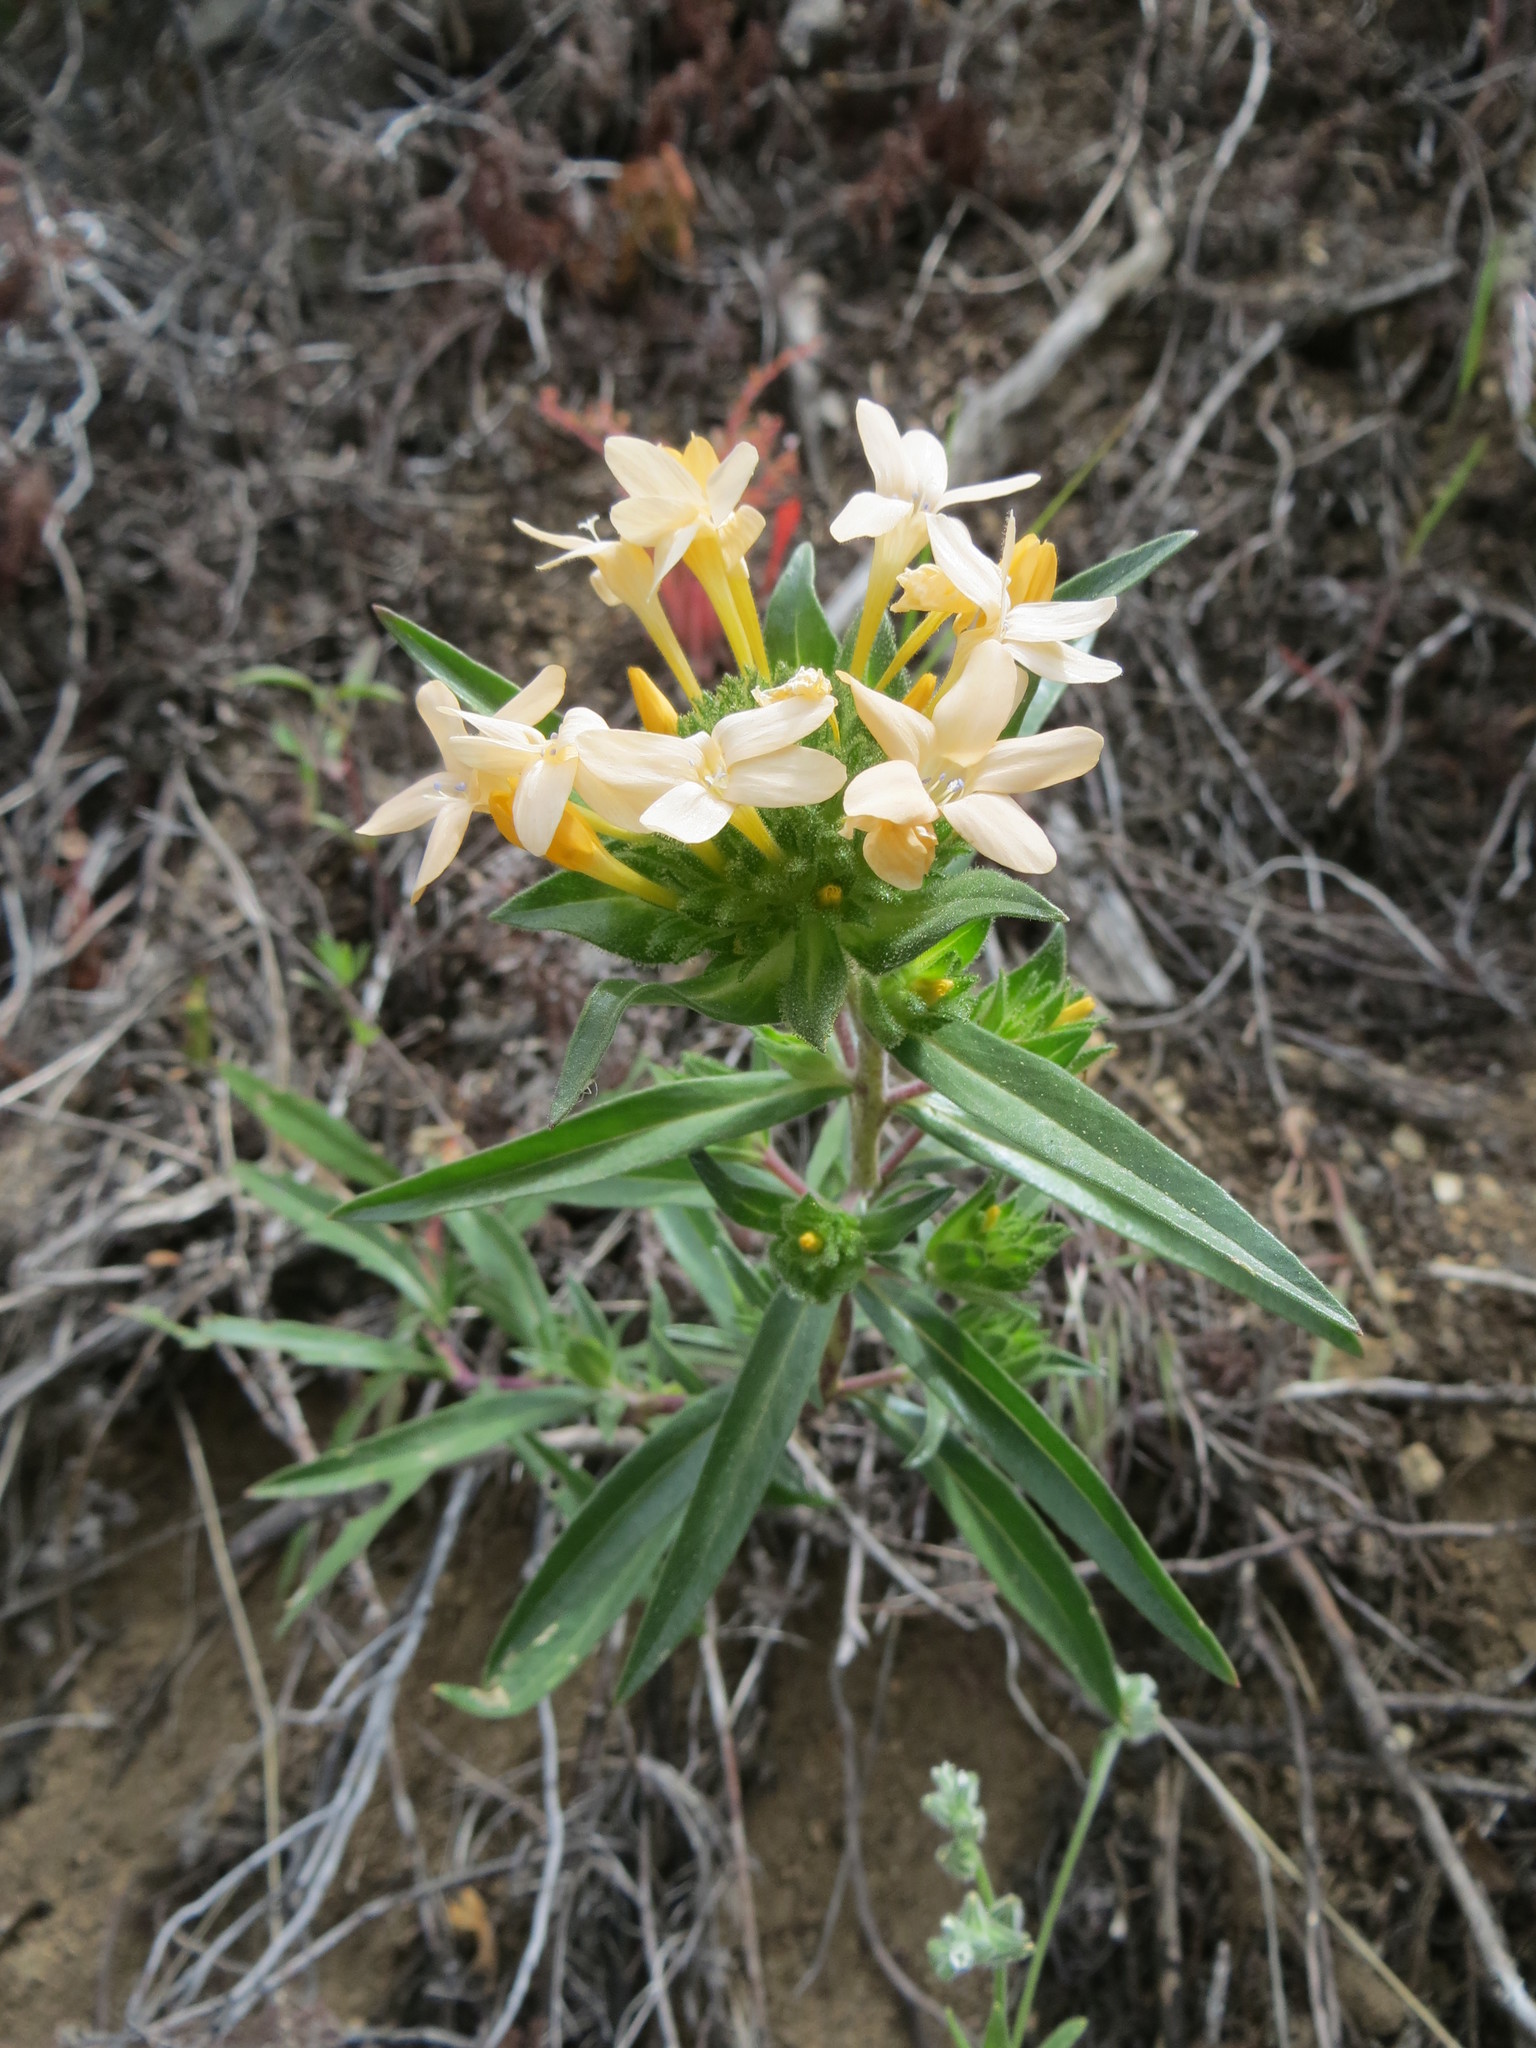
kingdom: Plantae
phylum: Tracheophyta
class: Magnoliopsida
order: Ericales
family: Polemoniaceae
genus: Collomia
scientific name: Collomia grandiflora
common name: California strawflower
